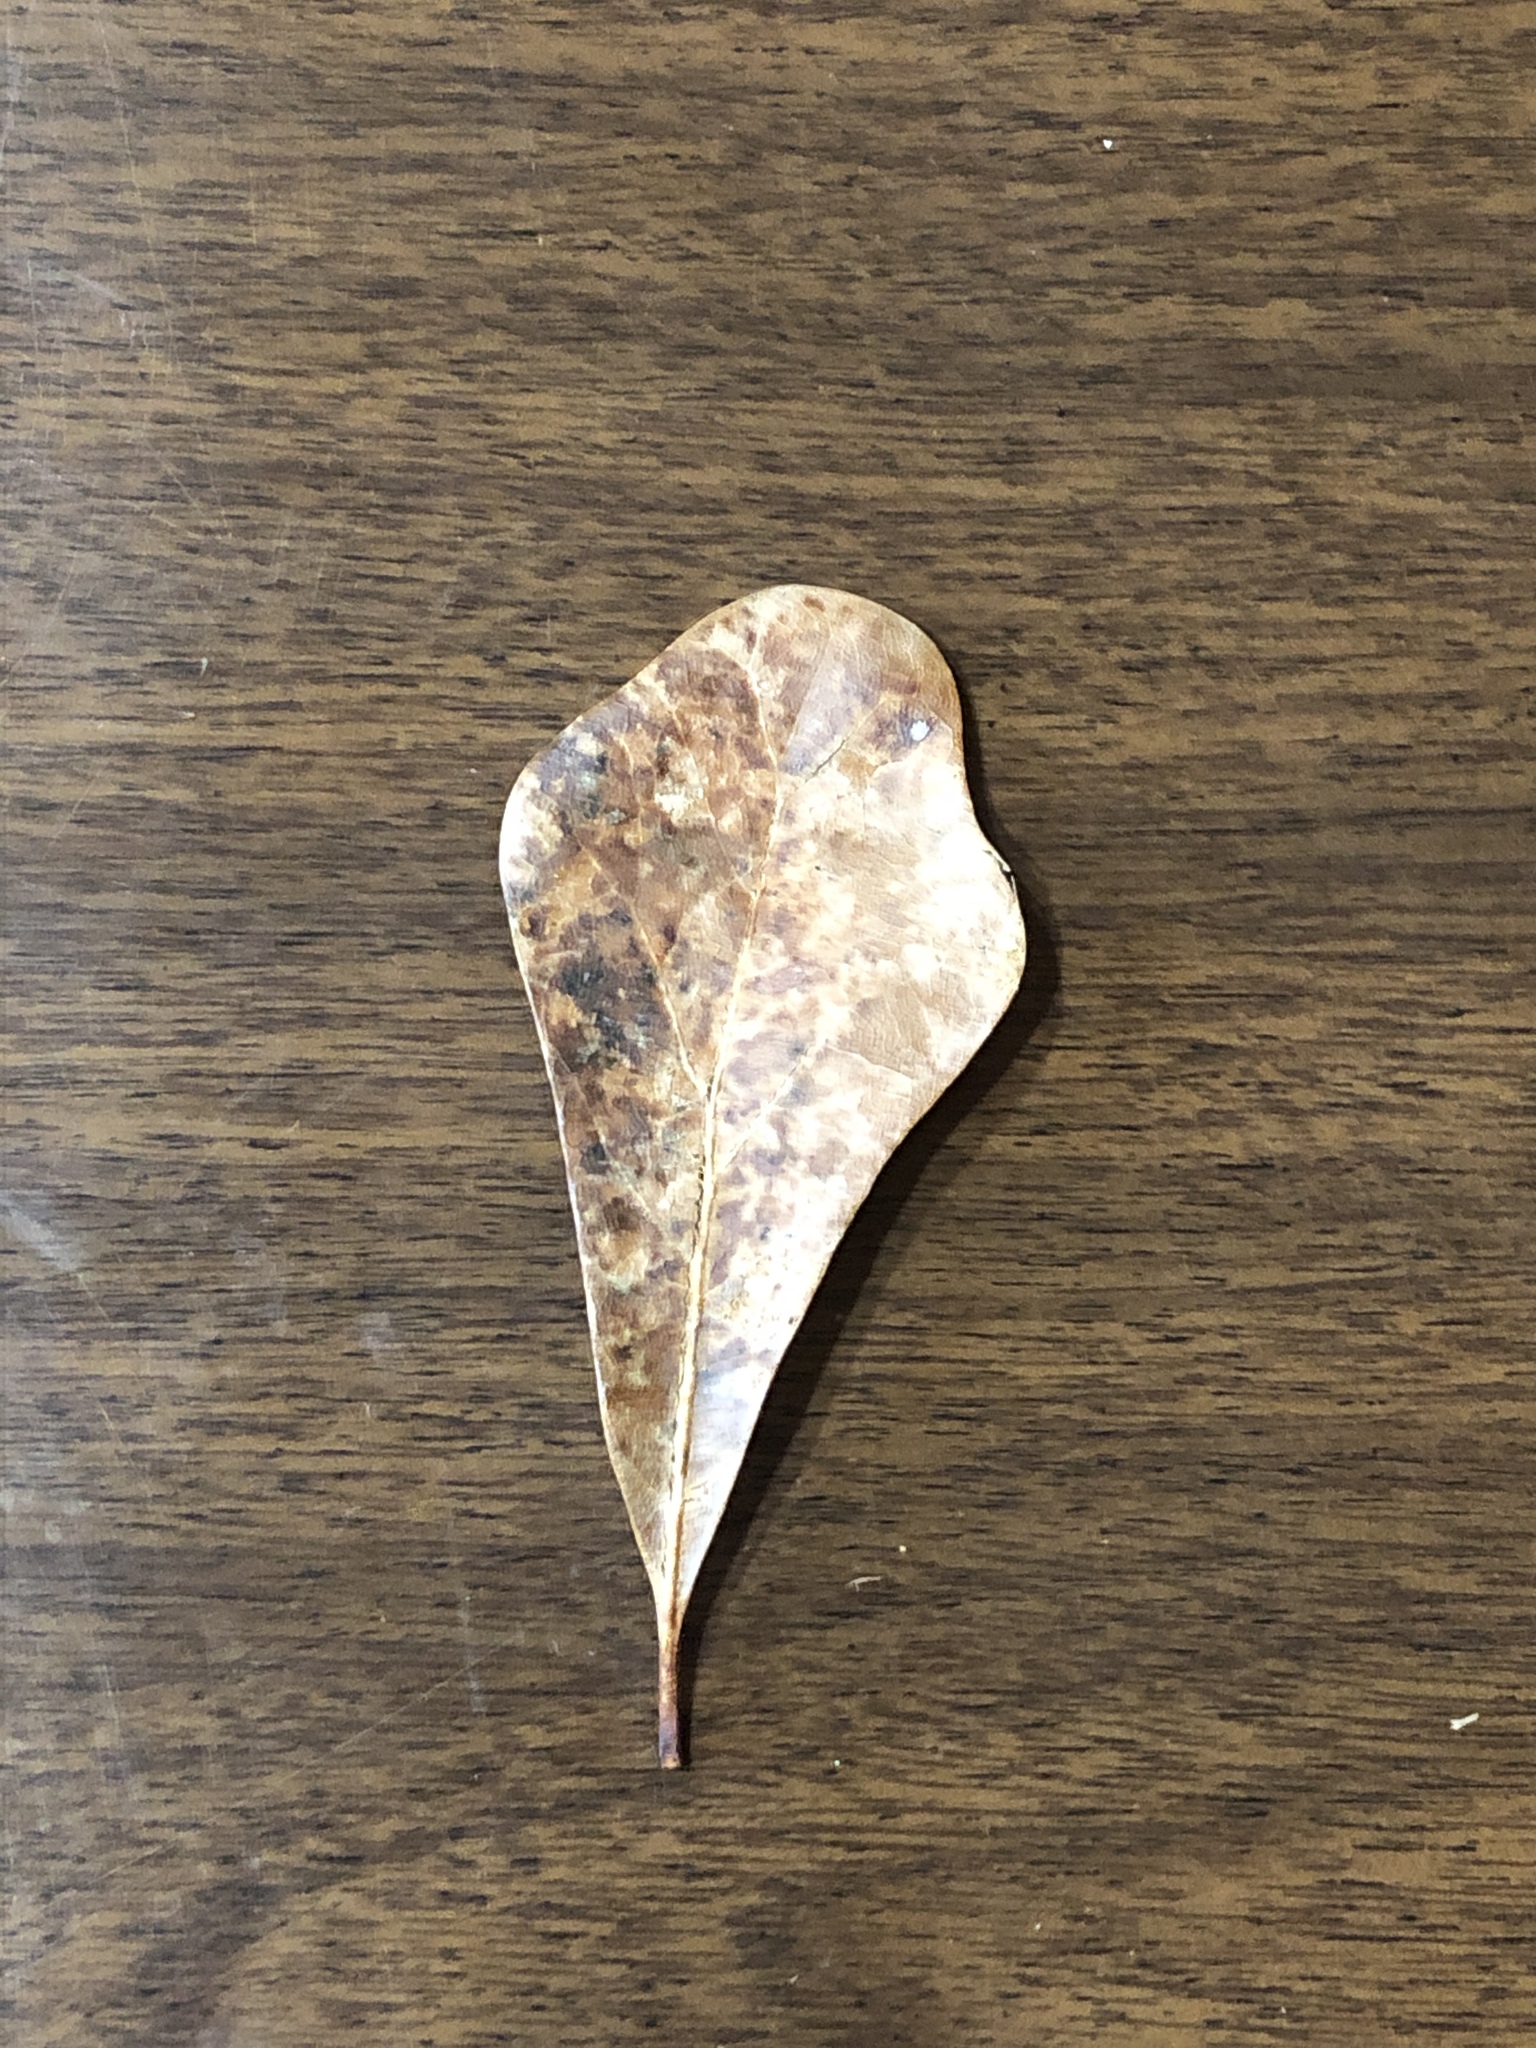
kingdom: Plantae
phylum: Tracheophyta
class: Magnoliopsida
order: Fagales
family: Fagaceae
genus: Quercus
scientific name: Quercus nigra
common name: Water oak
